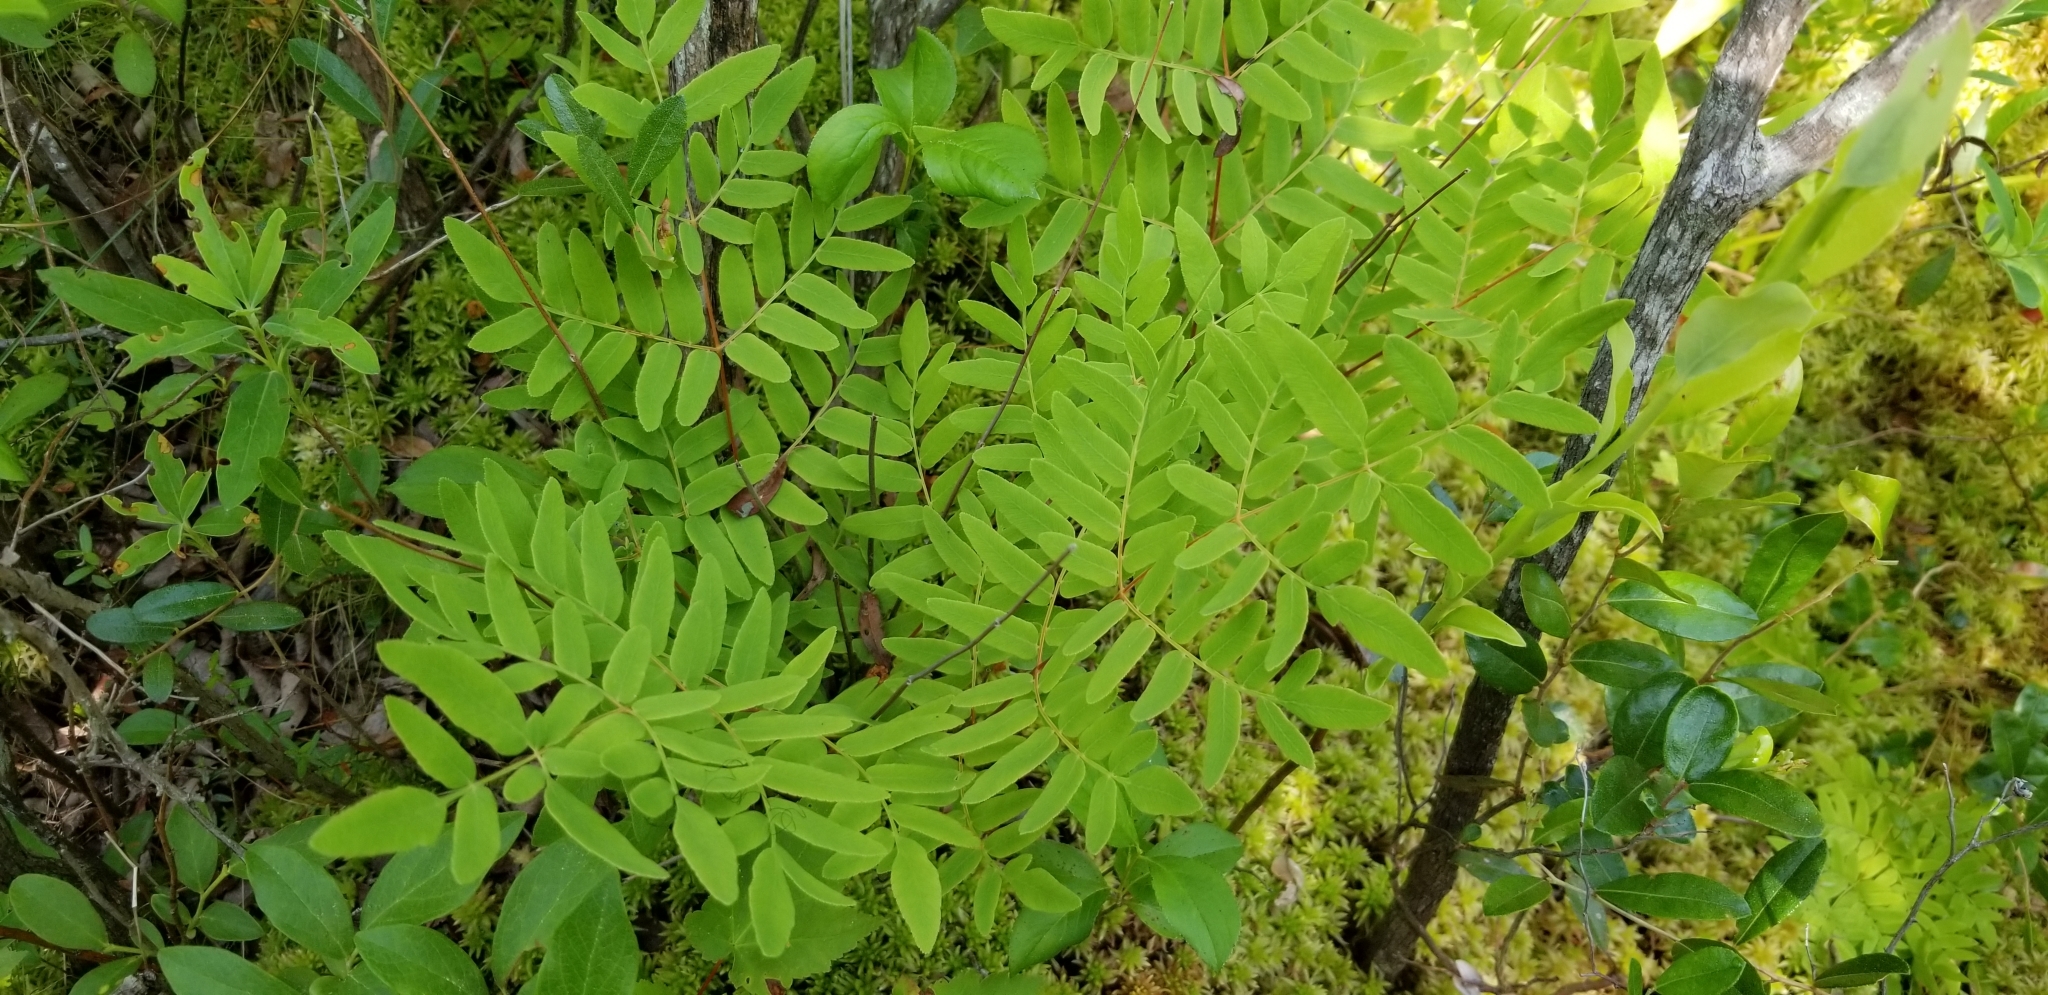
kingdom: Plantae
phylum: Tracheophyta
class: Polypodiopsida
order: Osmundales
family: Osmundaceae
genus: Osmunda
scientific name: Osmunda spectabilis
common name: American royal fern
